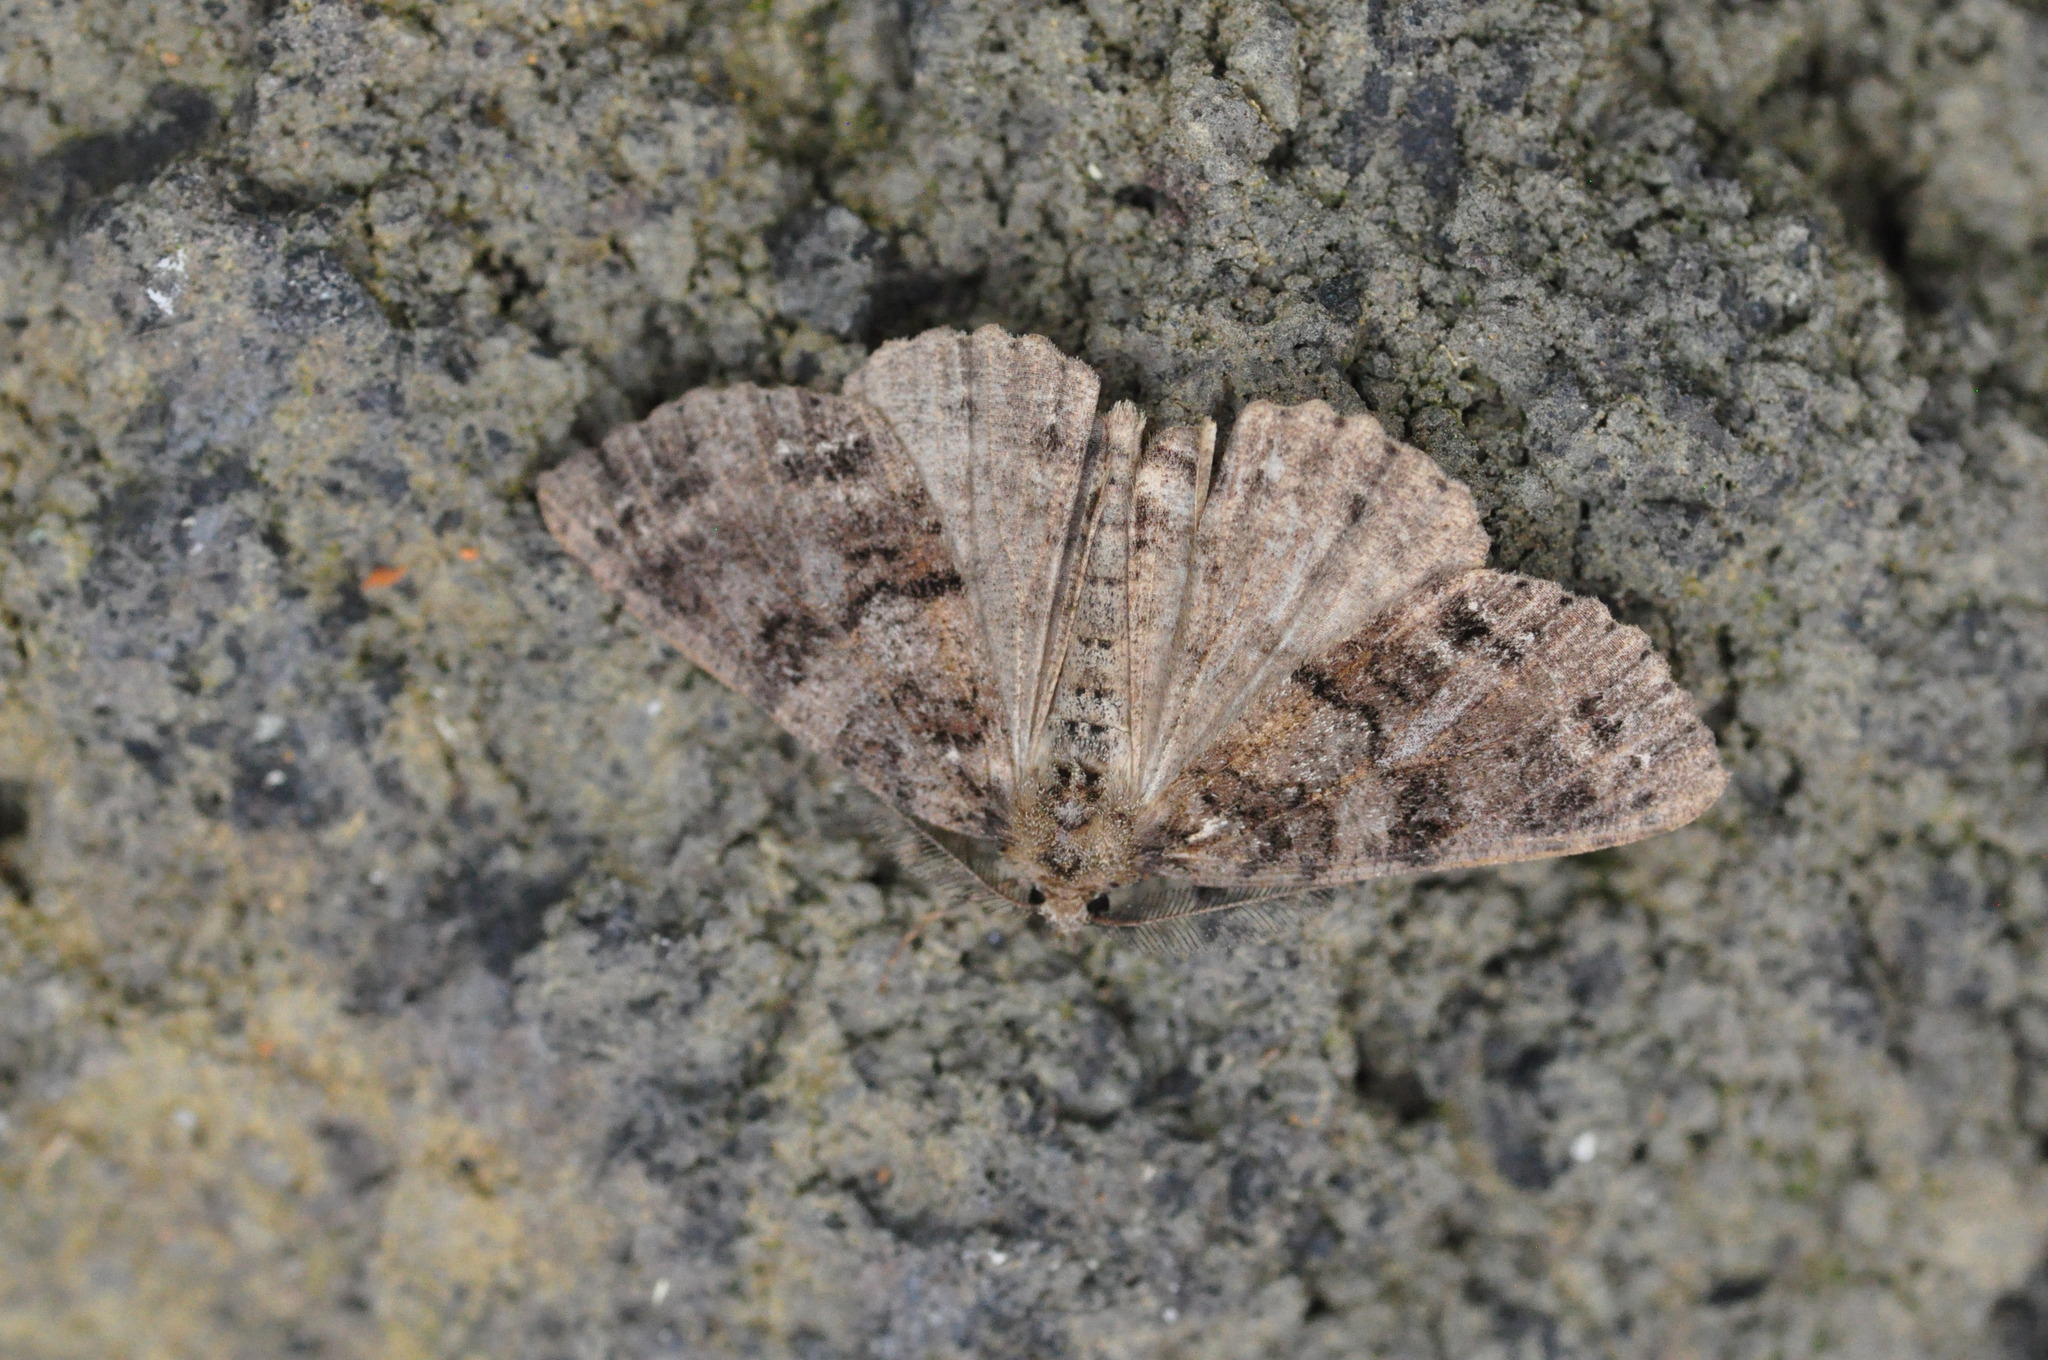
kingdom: Animalia
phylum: Arthropoda
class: Insecta
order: Lepidoptera
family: Geometridae
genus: Ascotis
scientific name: Ascotis fortunata
